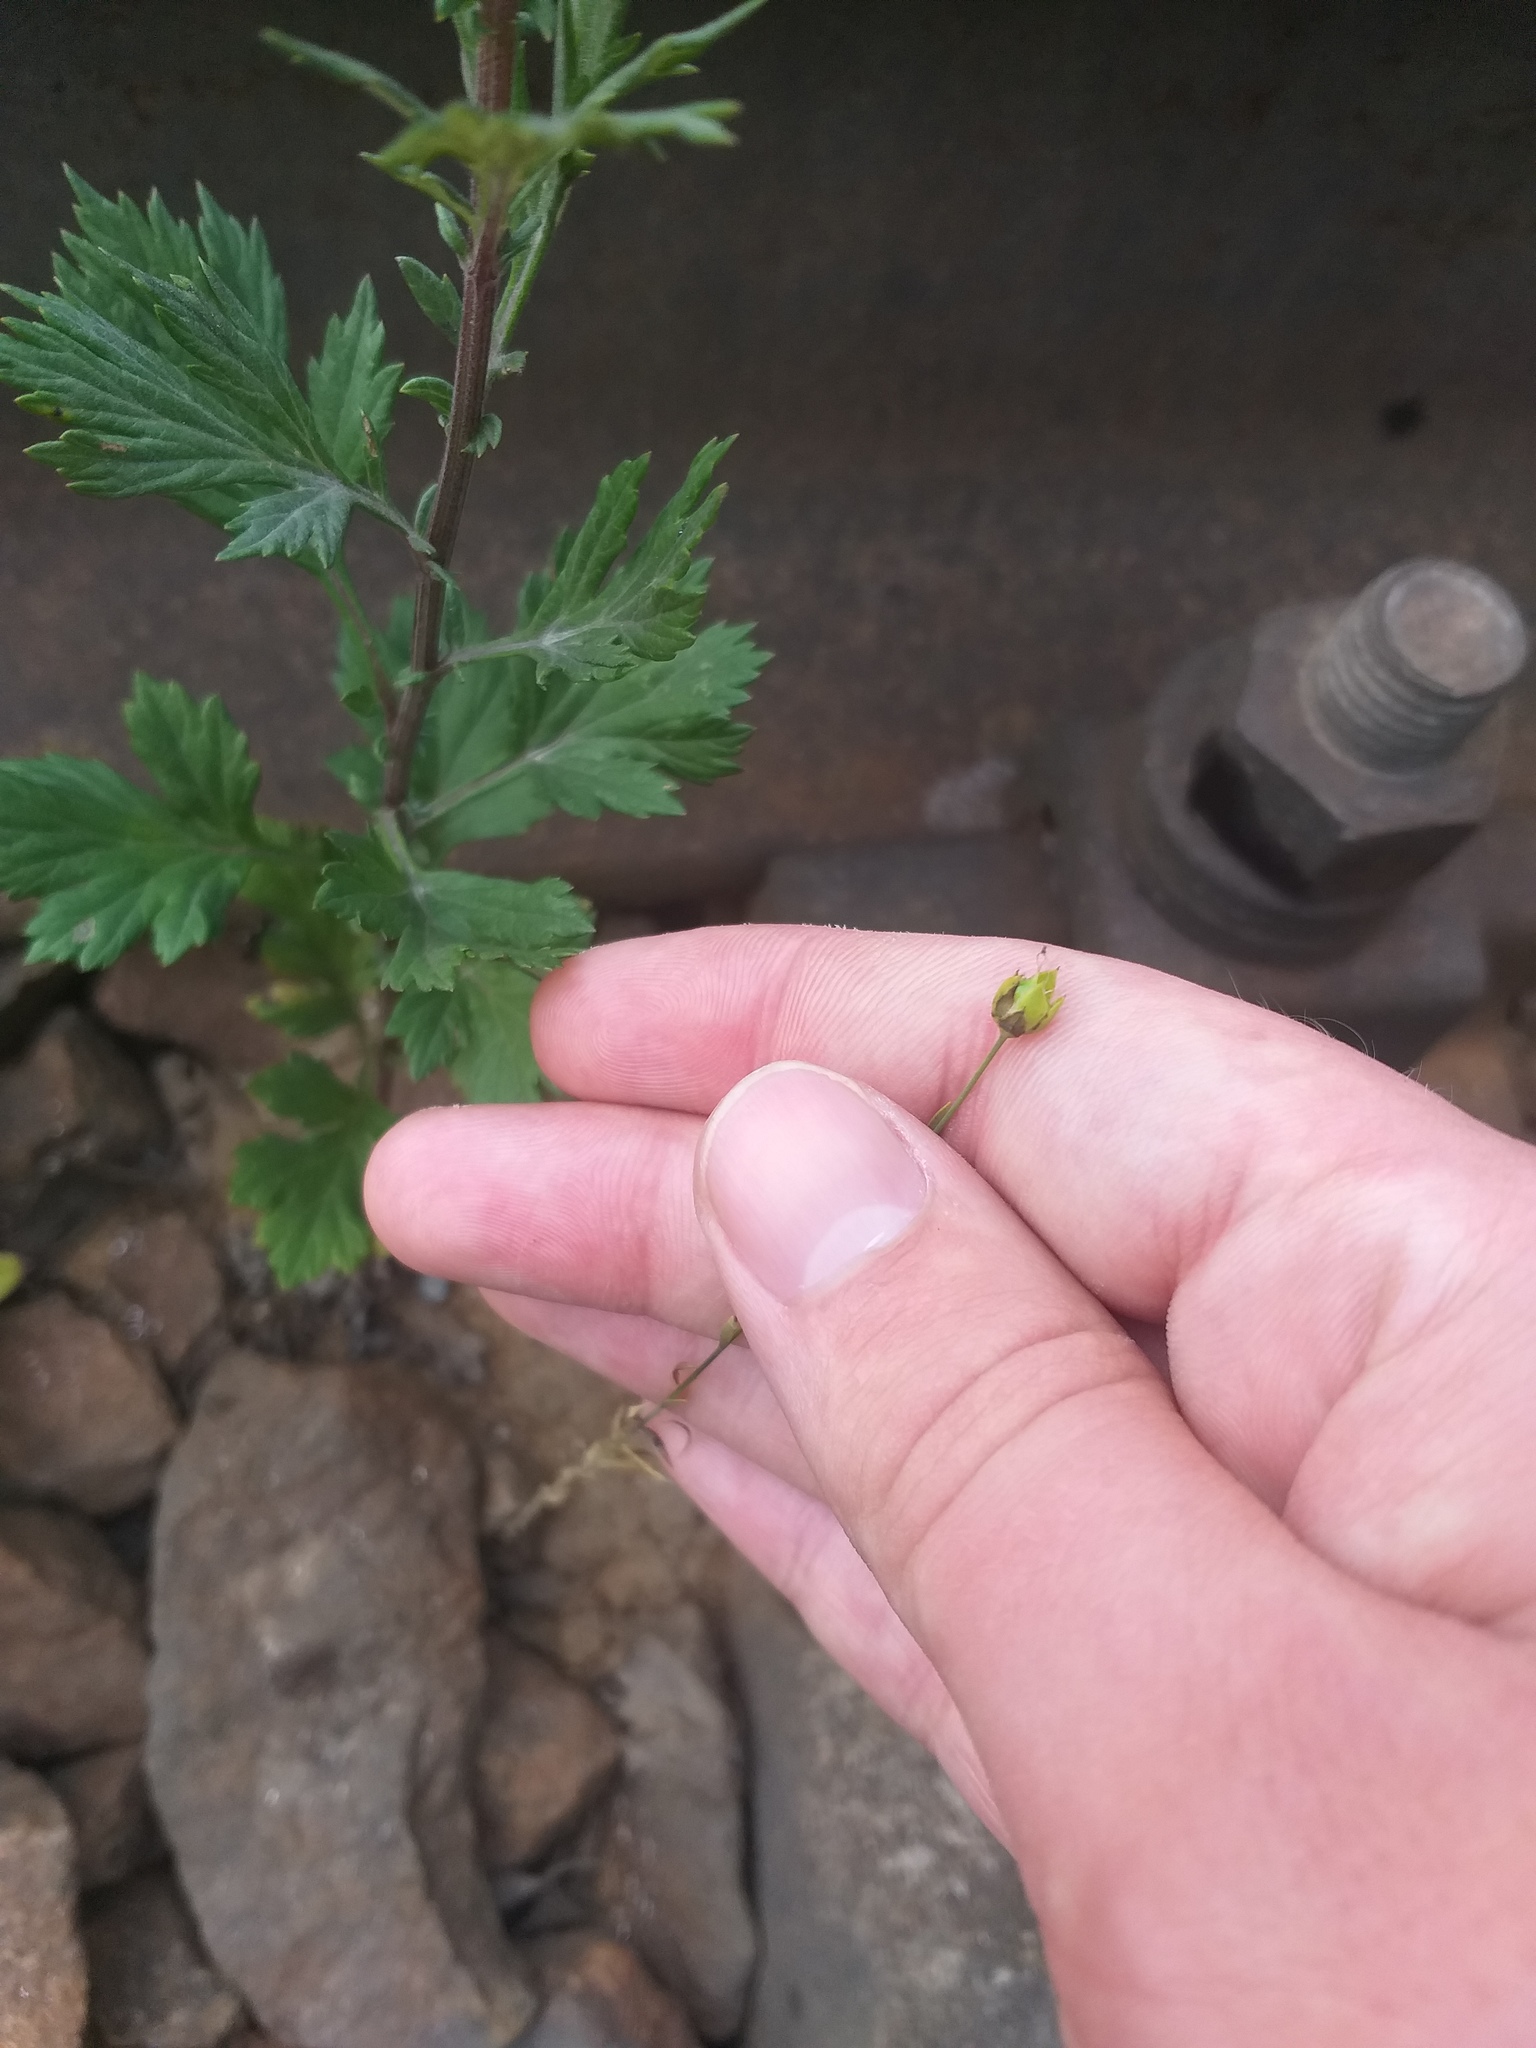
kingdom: Plantae
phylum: Tracheophyta
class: Magnoliopsida
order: Malpighiales
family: Linaceae
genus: Linum
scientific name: Linum usitatissimum
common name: Flax
